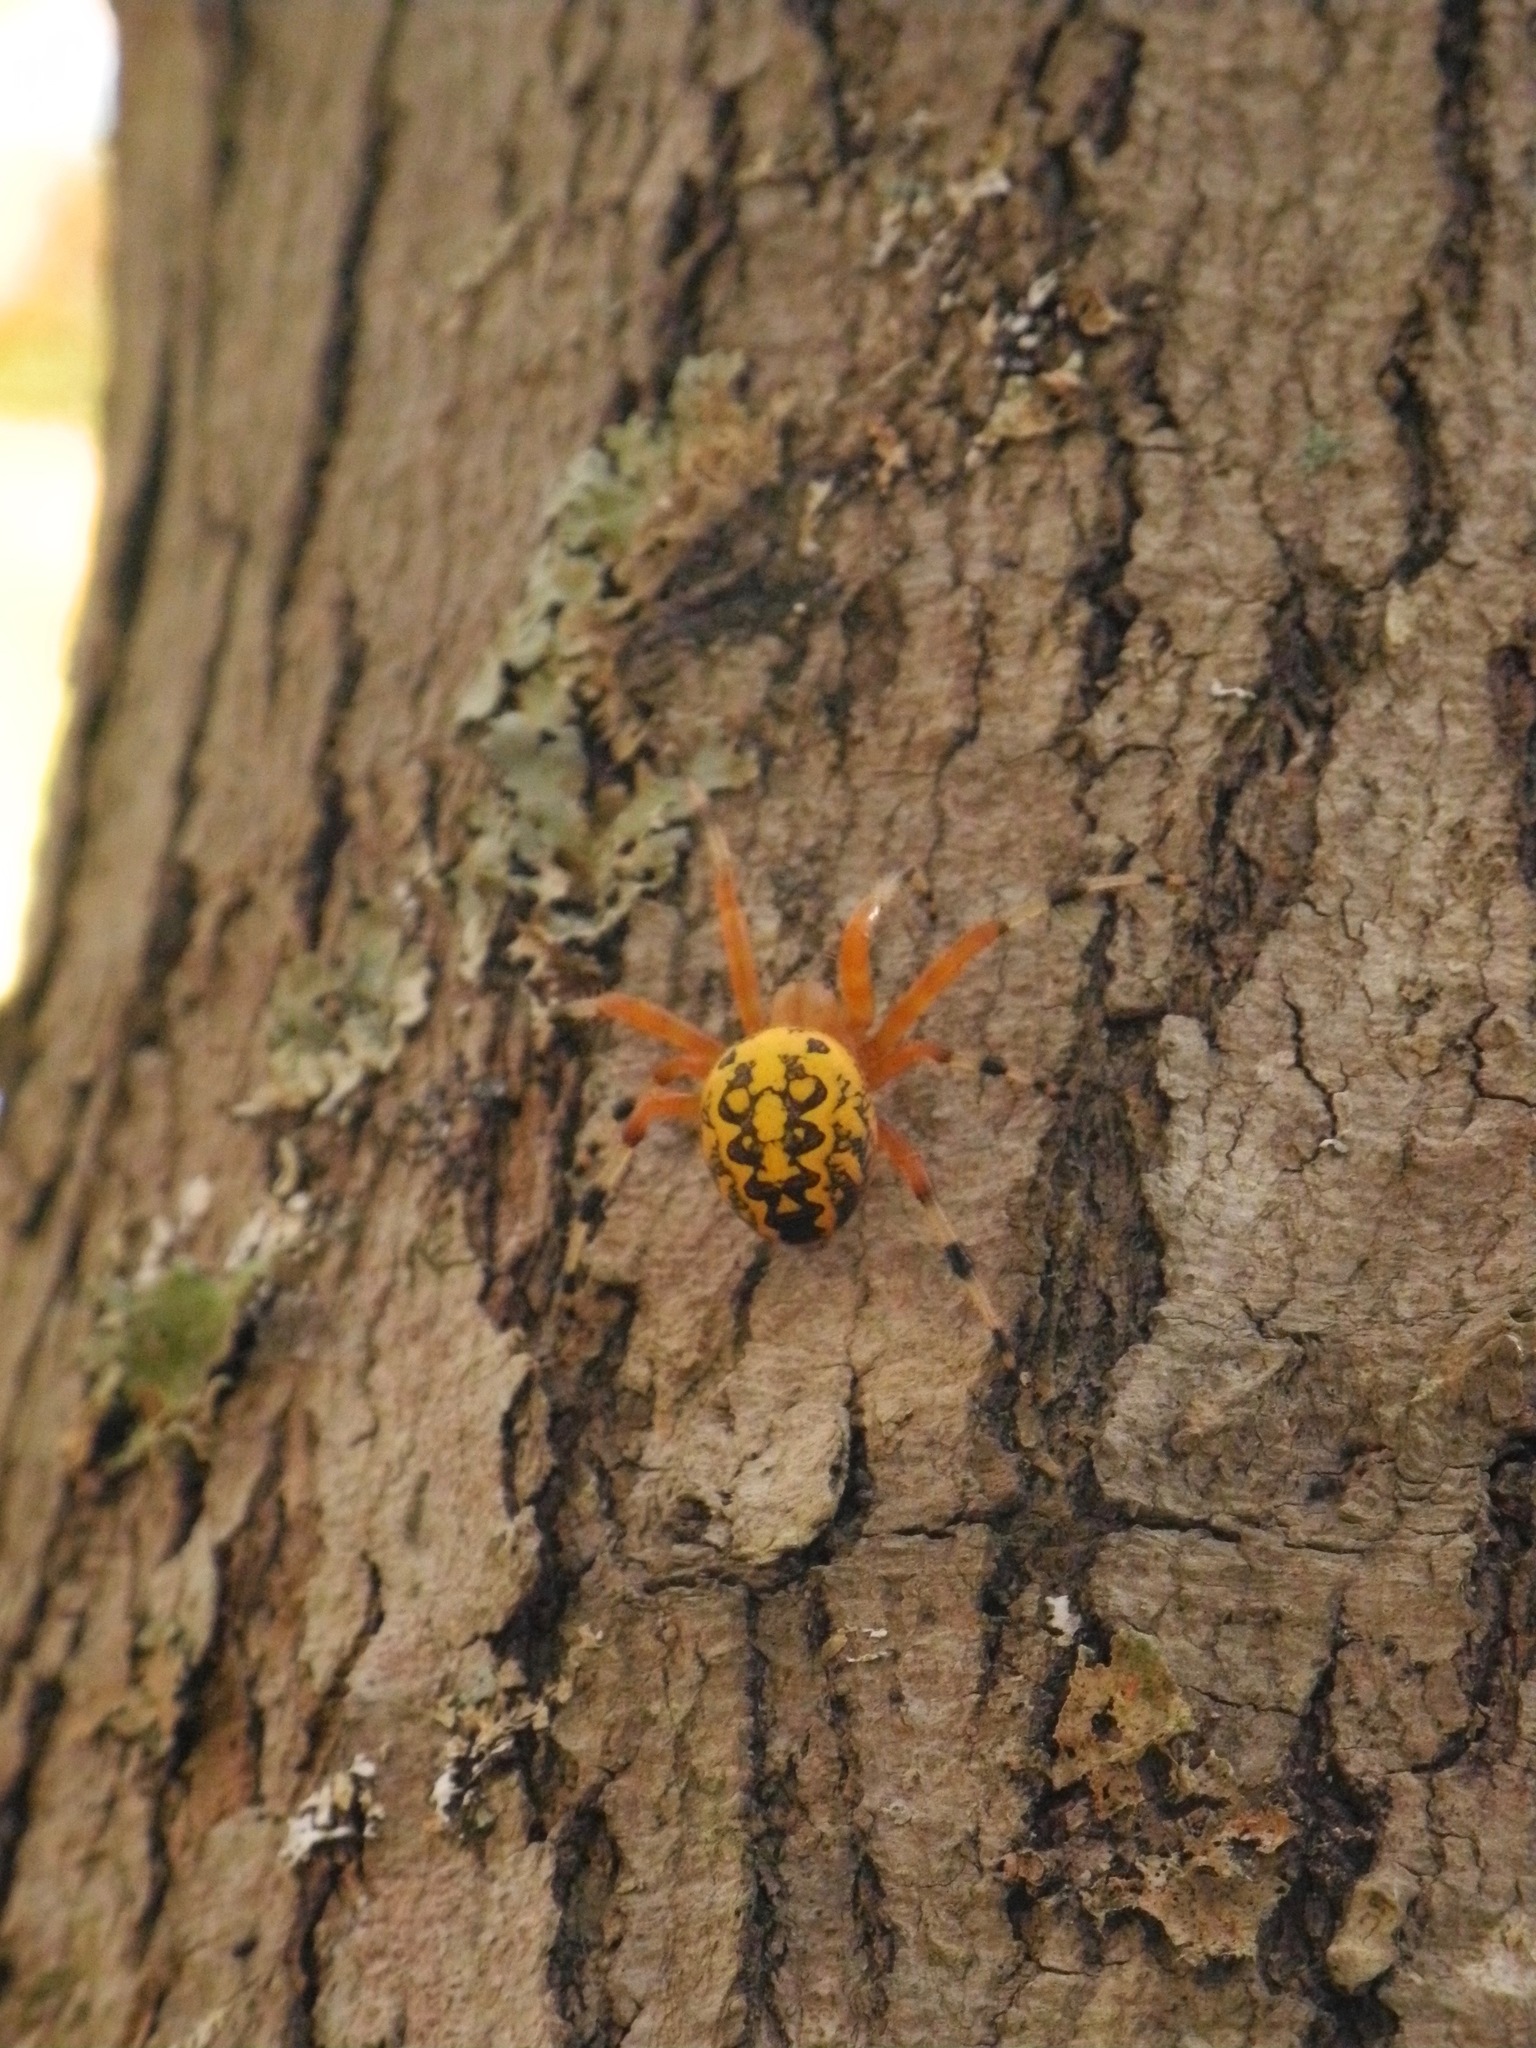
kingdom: Animalia
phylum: Arthropoda
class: Arachnida
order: Araneae
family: Araneidae
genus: Araneus
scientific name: Araneus marmoreus
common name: Marbled orbweaver
